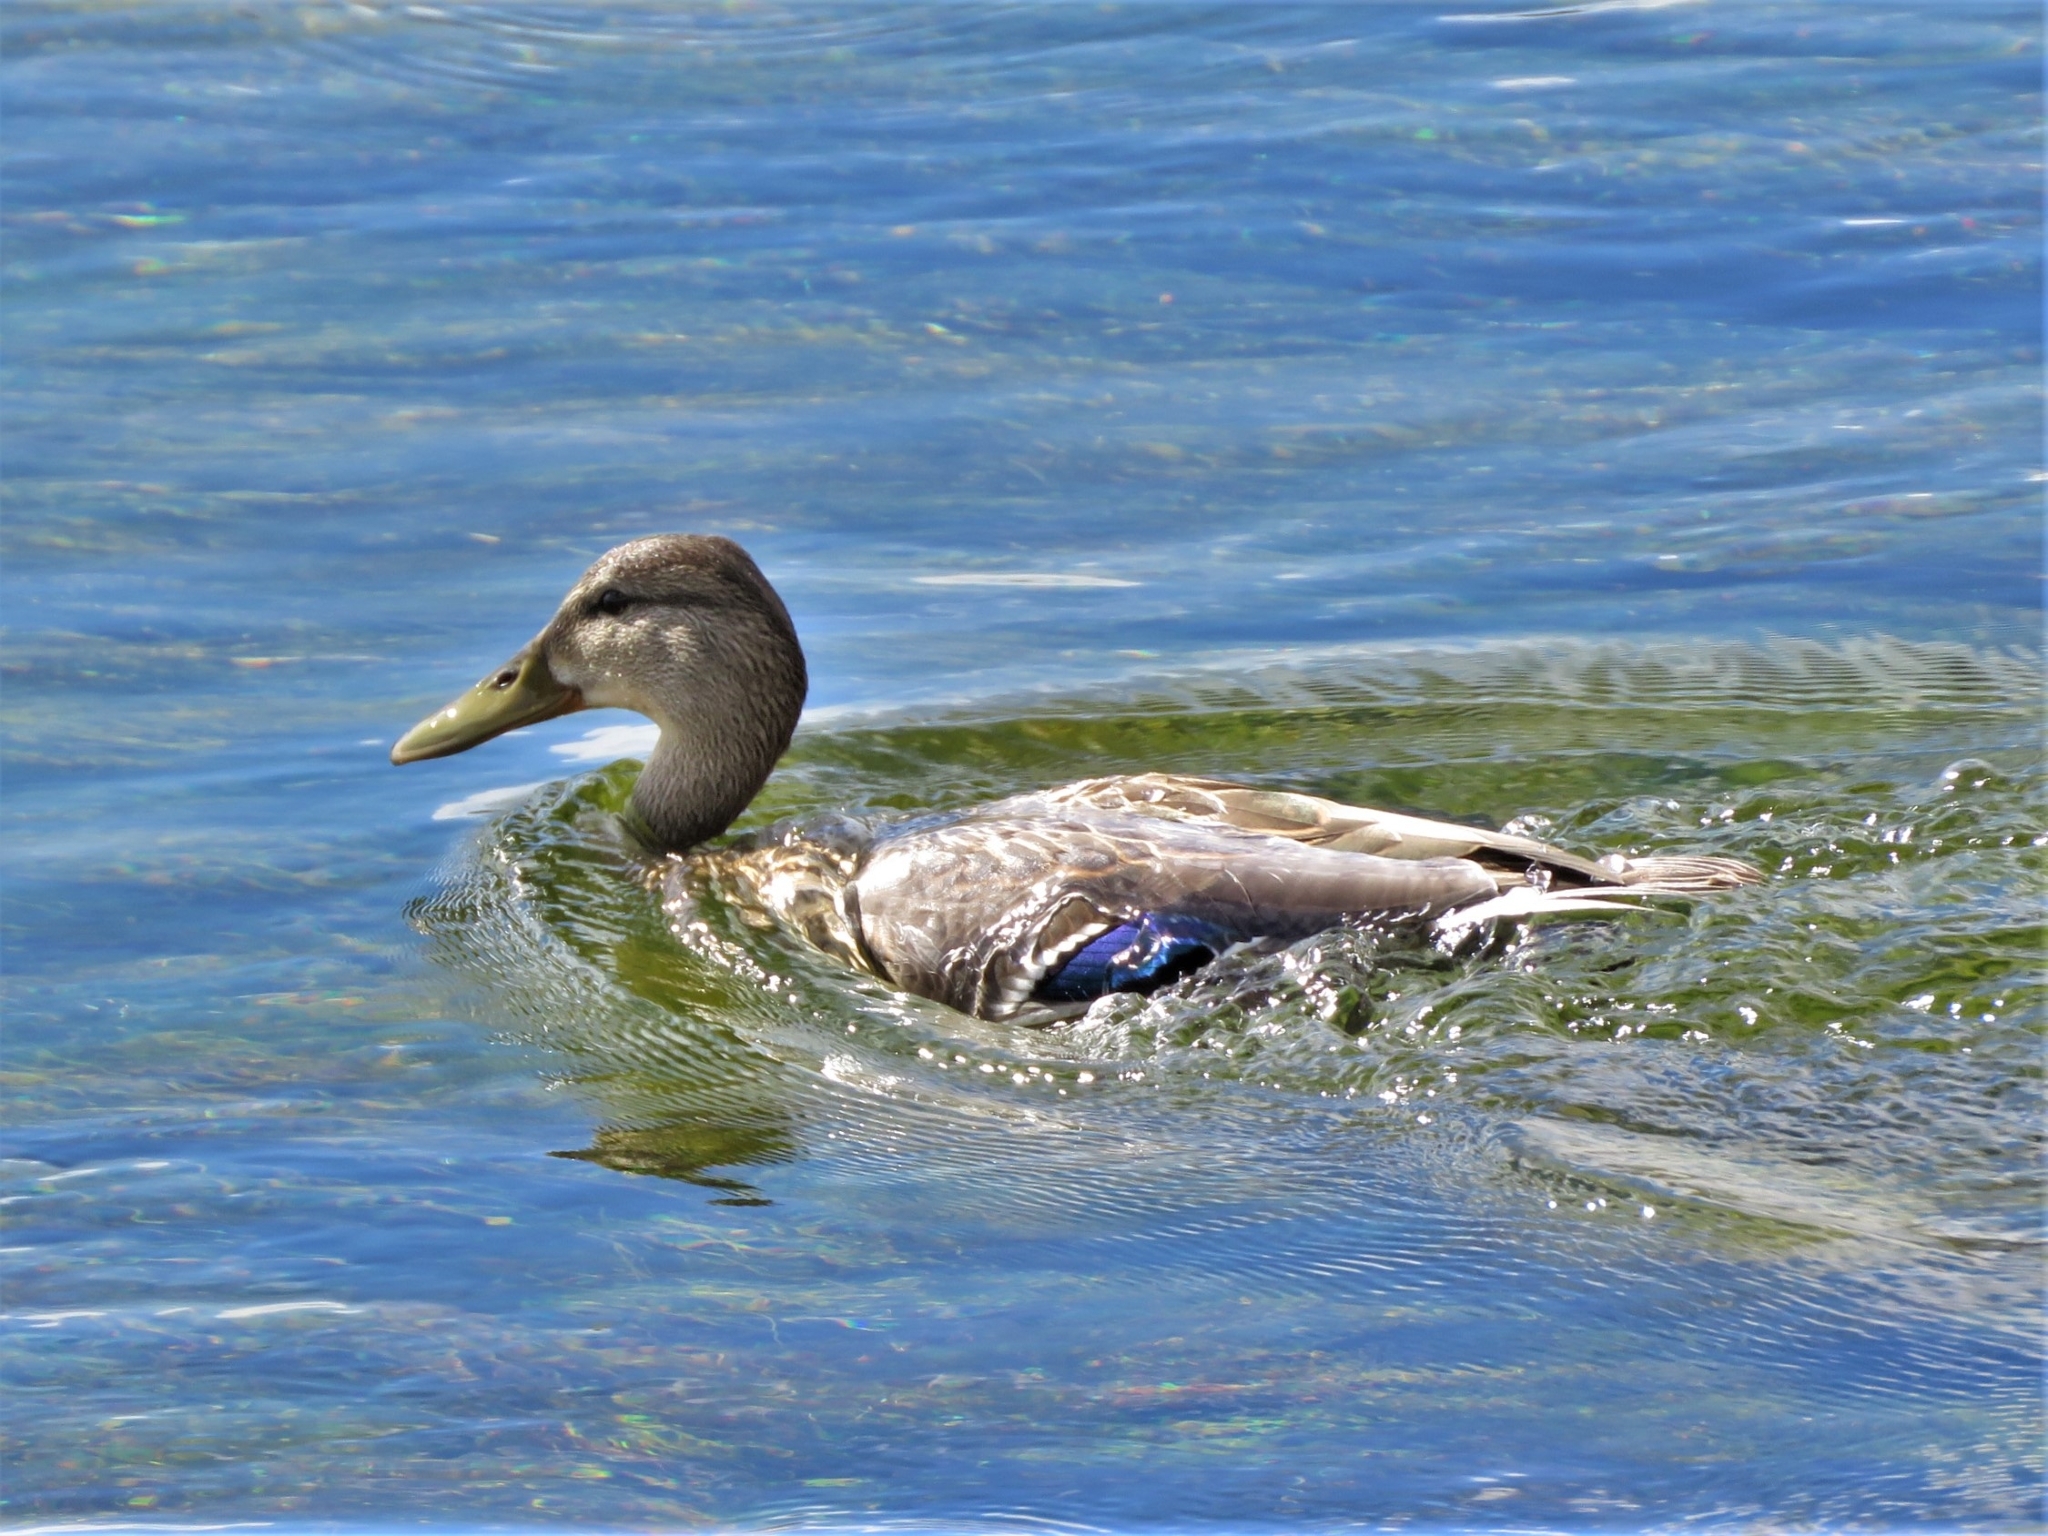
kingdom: Animalia
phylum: Chordata
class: Aves
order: Anseriformes
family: Anatidae
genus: Anas
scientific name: Anas platyrhynchos
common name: Mallard
